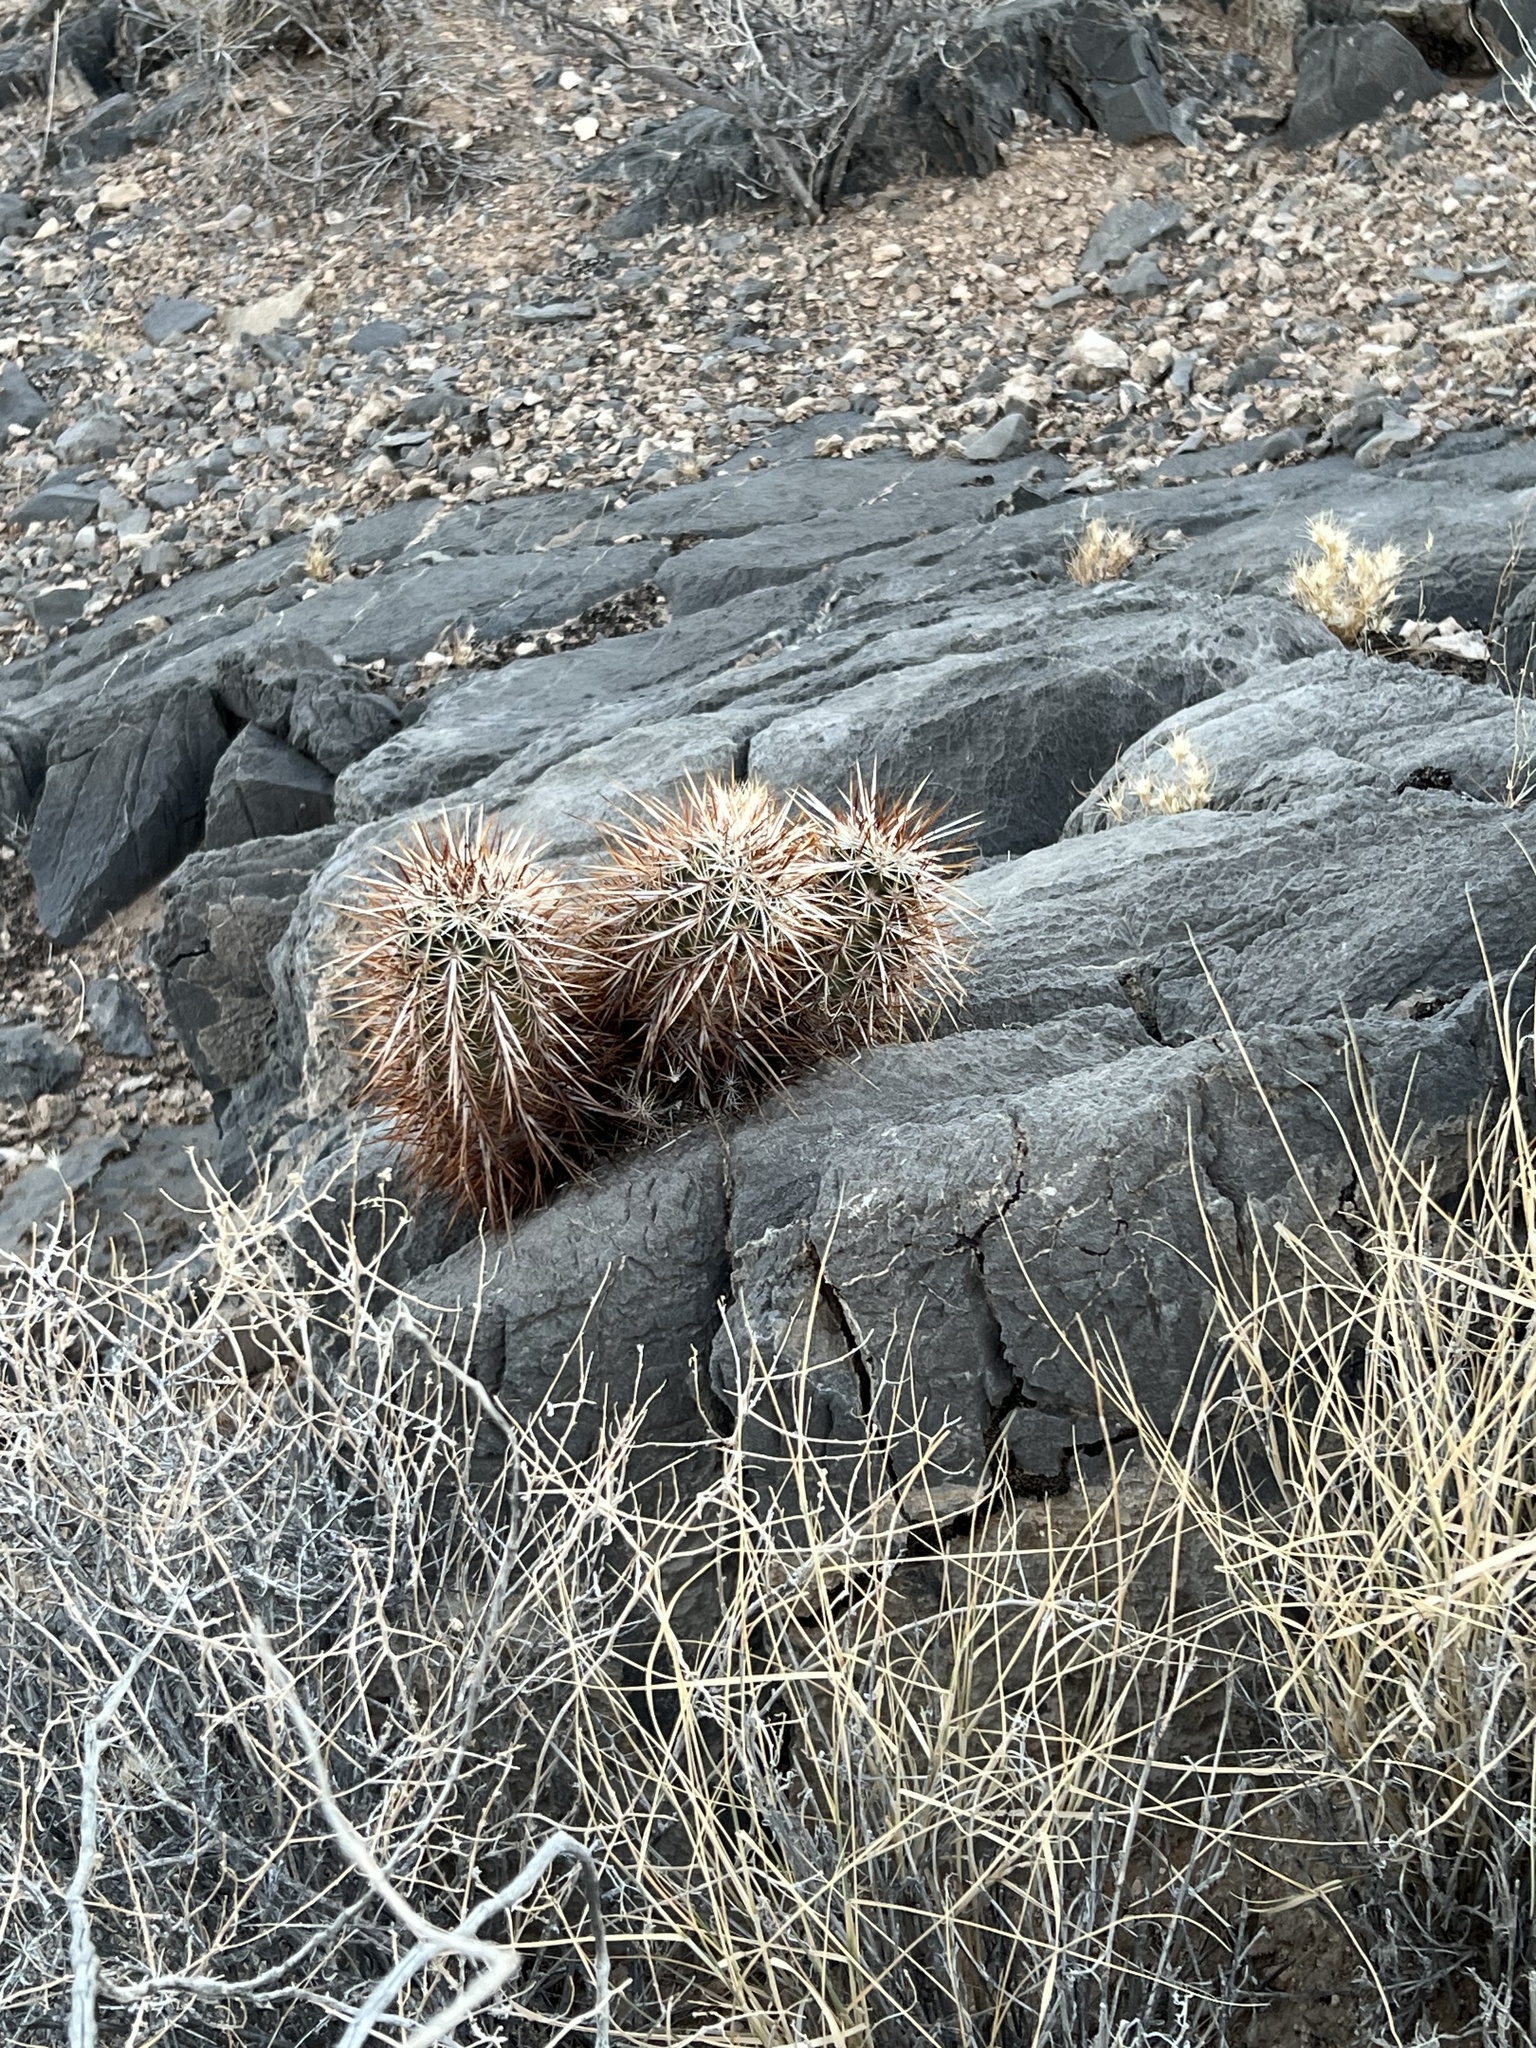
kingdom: Plantae
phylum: Tracheophyta
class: Magnoliopsida
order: Caryophyllales
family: Cactaceae
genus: Echinocereus
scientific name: Echinocereus engelmannii
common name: Engelmann's hedgehog cactus
